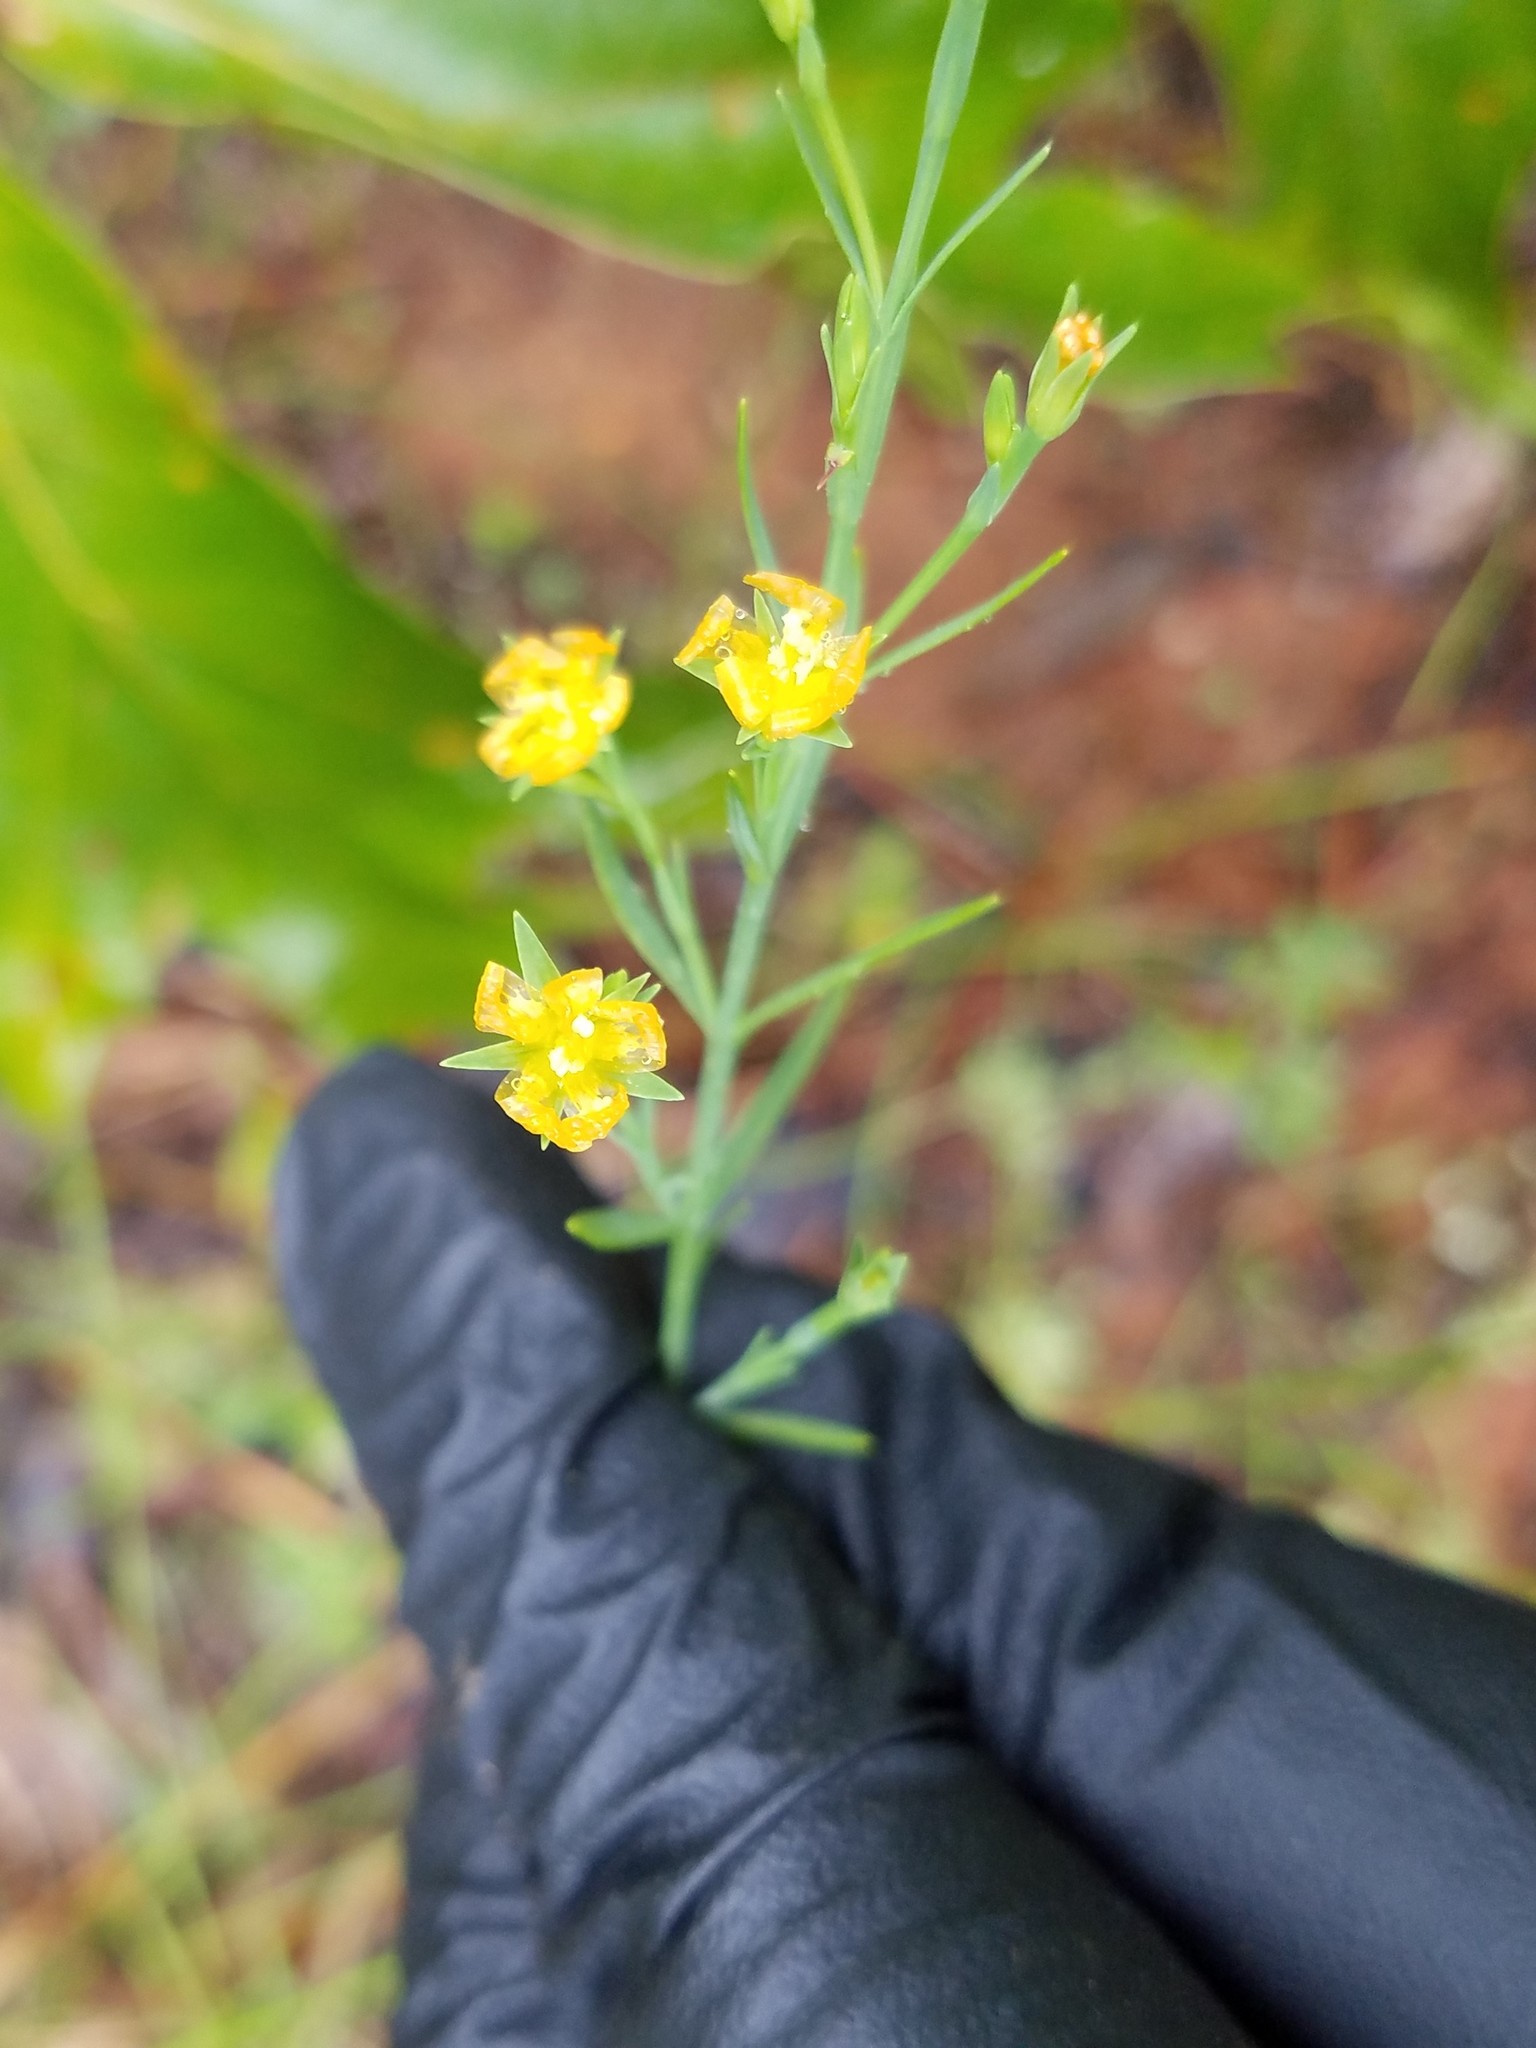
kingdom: Plantae
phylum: Tracheophyta
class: Magnoliopsida
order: Malpighiales
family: Hypericaceae
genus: Hypericum
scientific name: Hypericum drummondii
